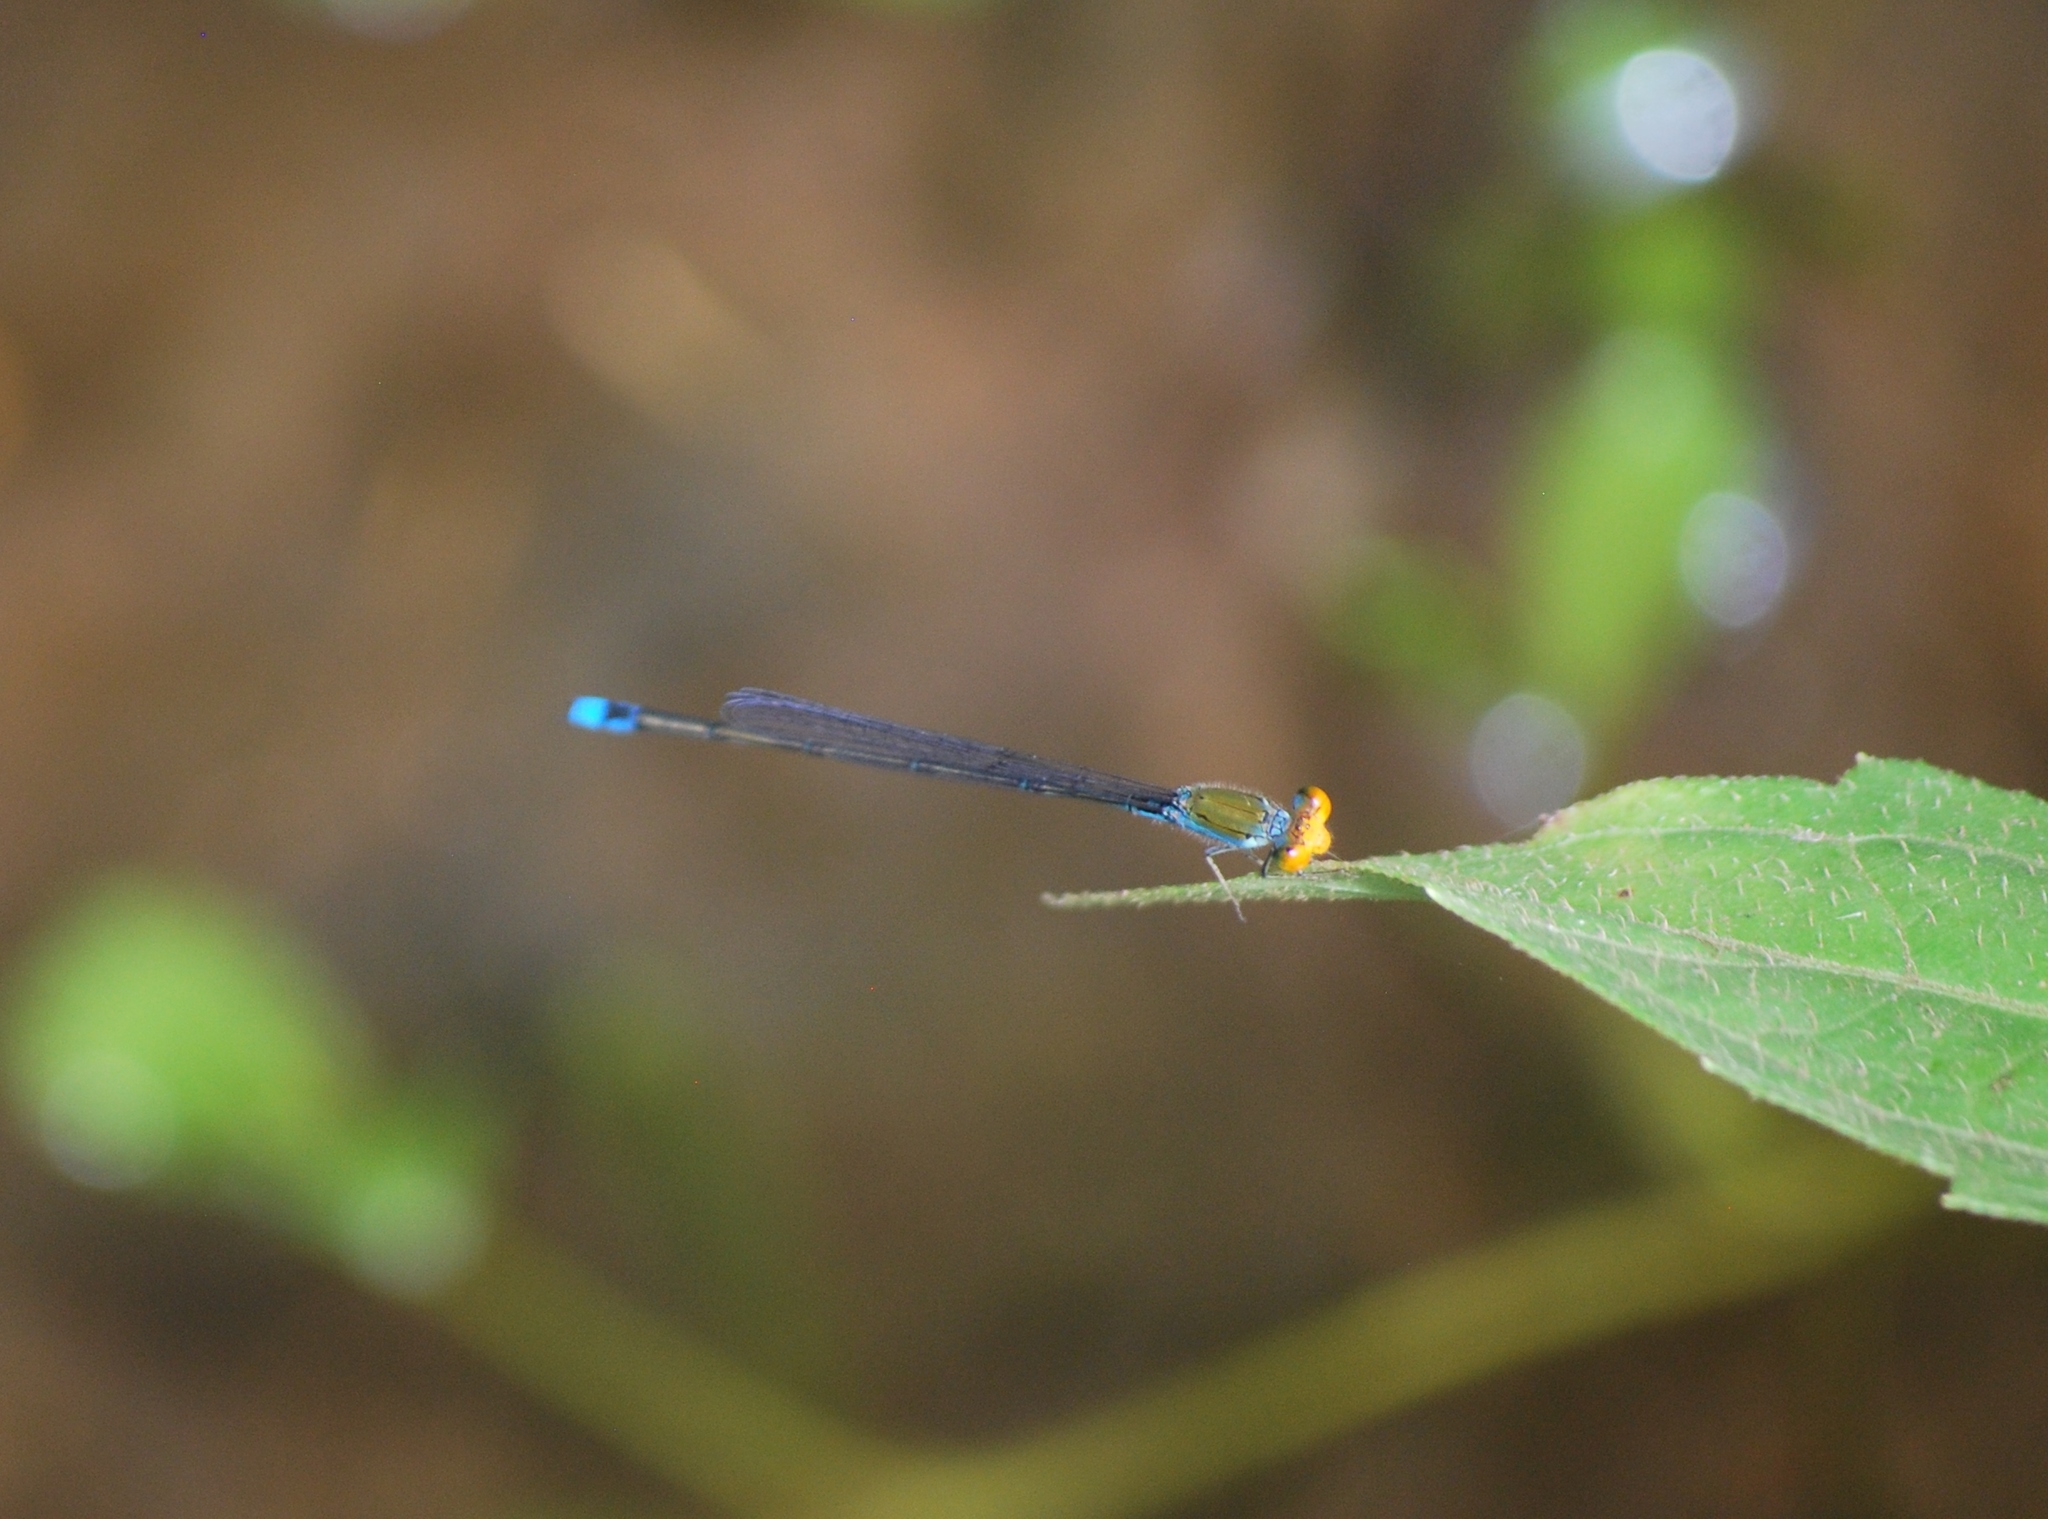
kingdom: Animalia
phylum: Arthropoda
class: Insecta
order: Odonata
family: Coenagrionidae
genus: Pseudagrion
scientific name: Pseudagrion rubriceps
